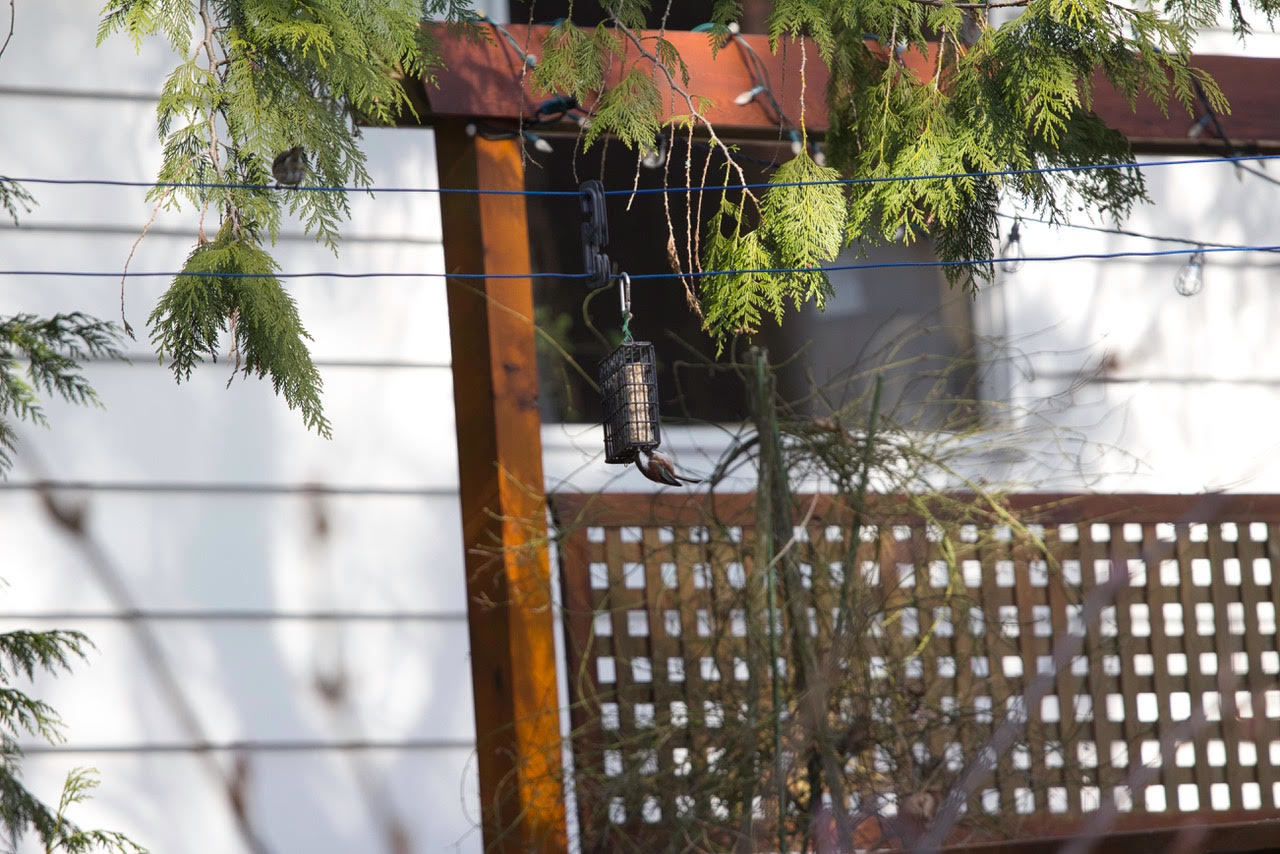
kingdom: Animalia
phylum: Chordata
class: Aves
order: Passeriformes
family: Paridae
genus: Poecile
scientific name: Poecile rufescens
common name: Chestnut-backed chickadee
